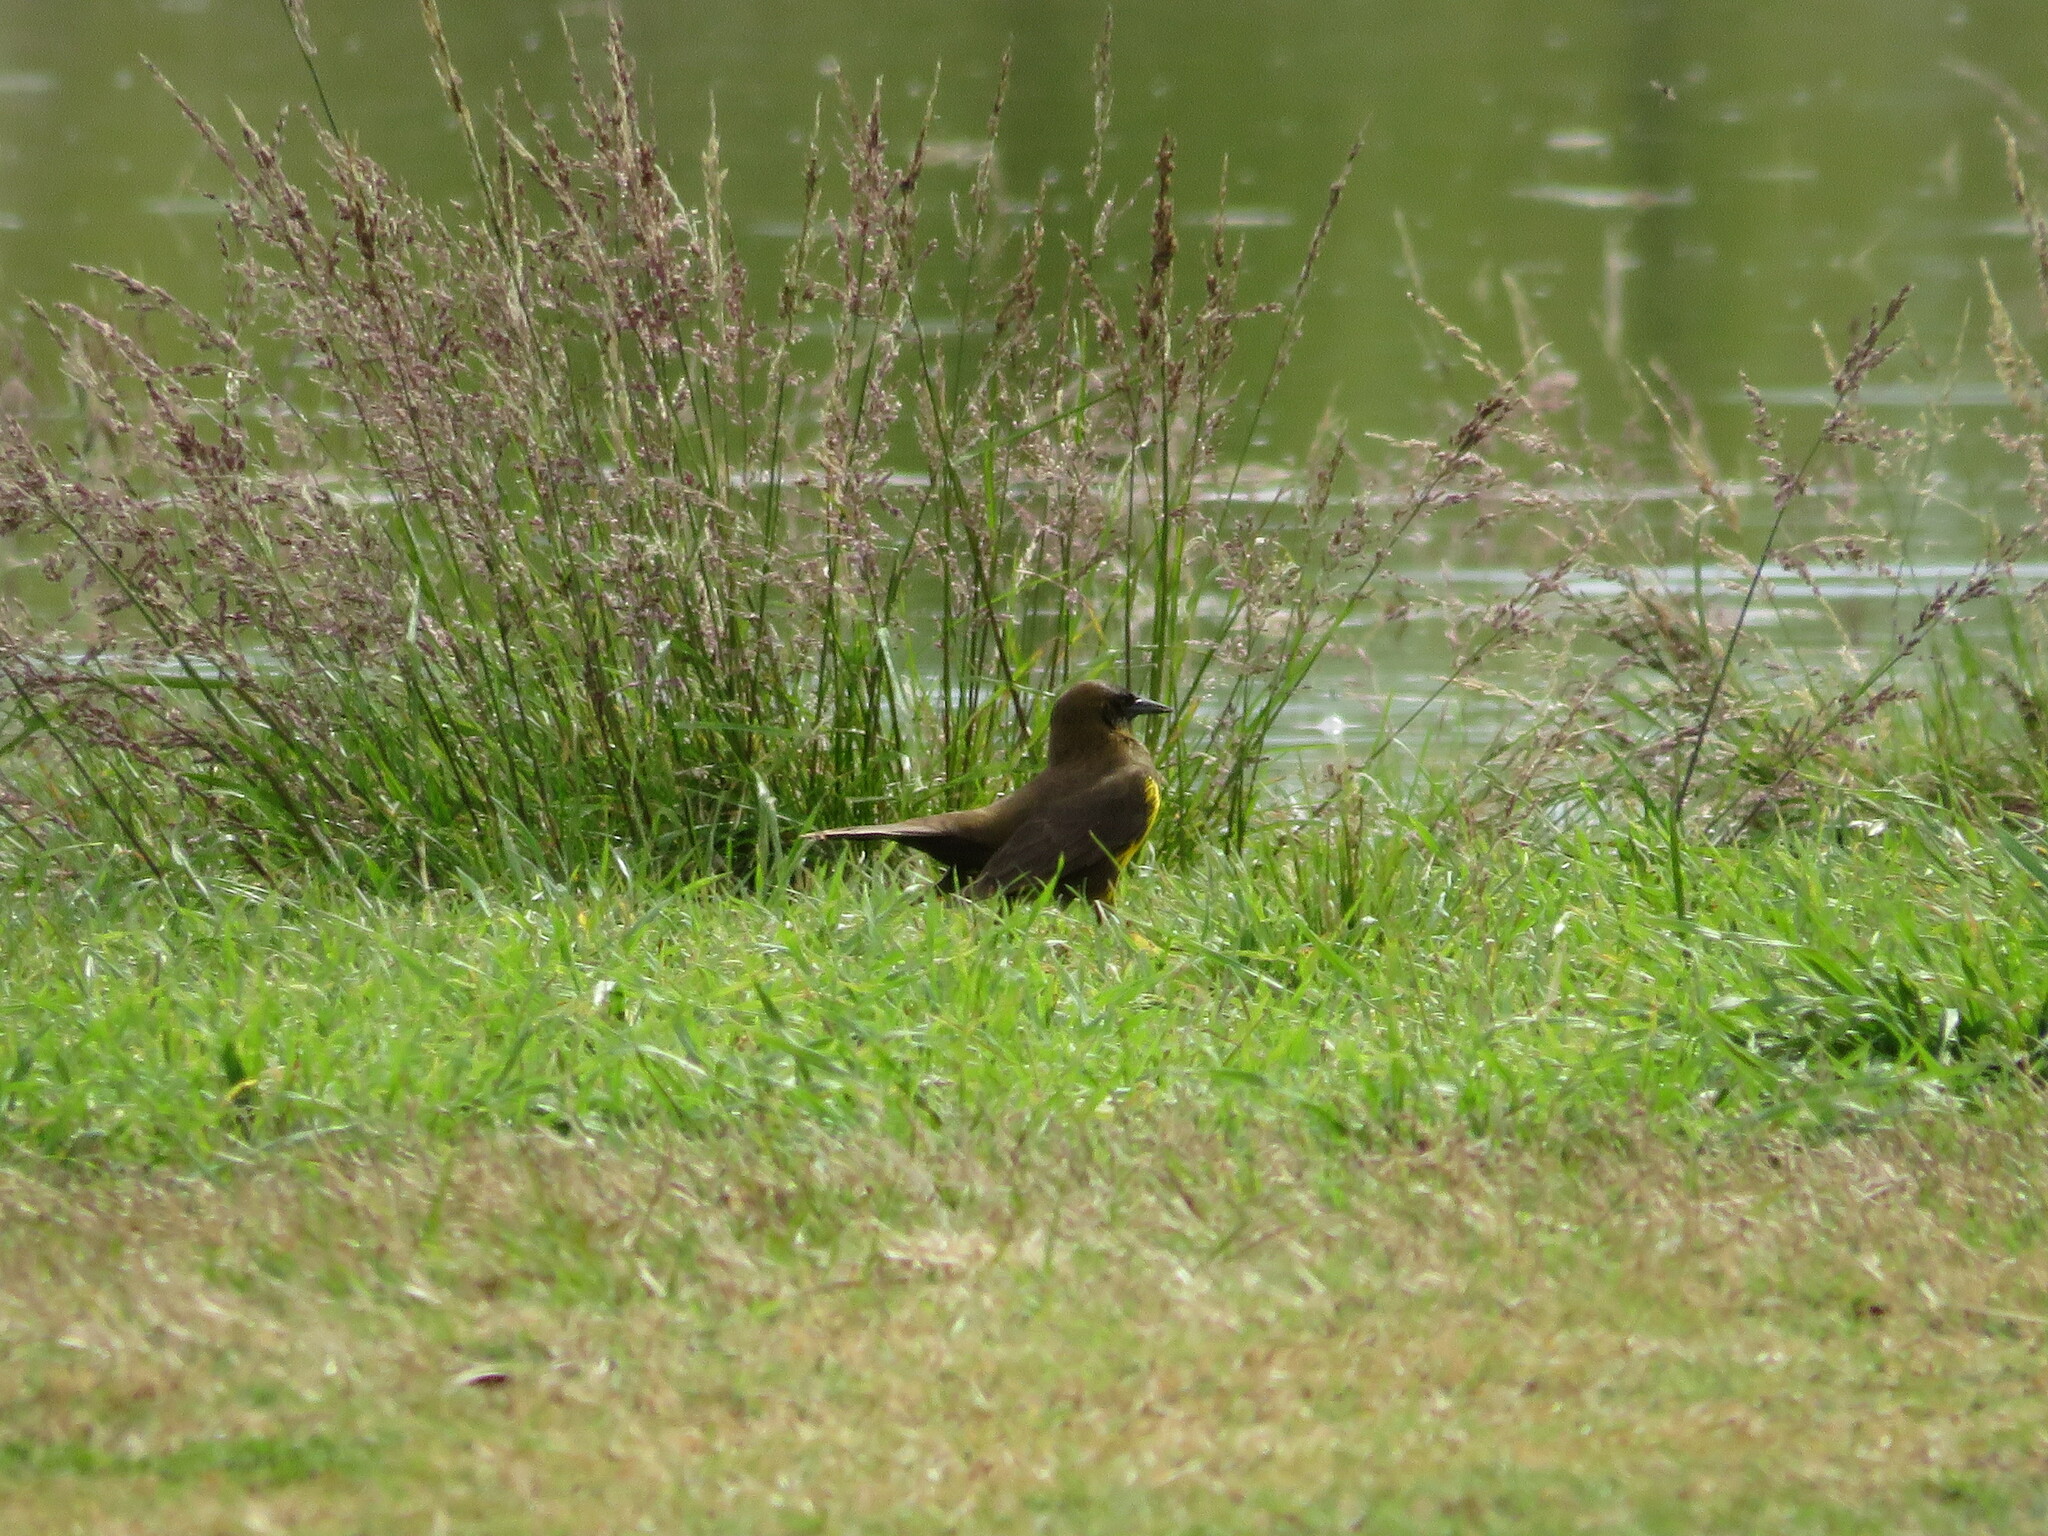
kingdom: Animalia
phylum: Chordata
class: Aves
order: Passeriformes
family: Icteridae
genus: Pseudoleistes
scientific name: Pseudoleistes virescens
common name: Brown-and-yellow marshbird
